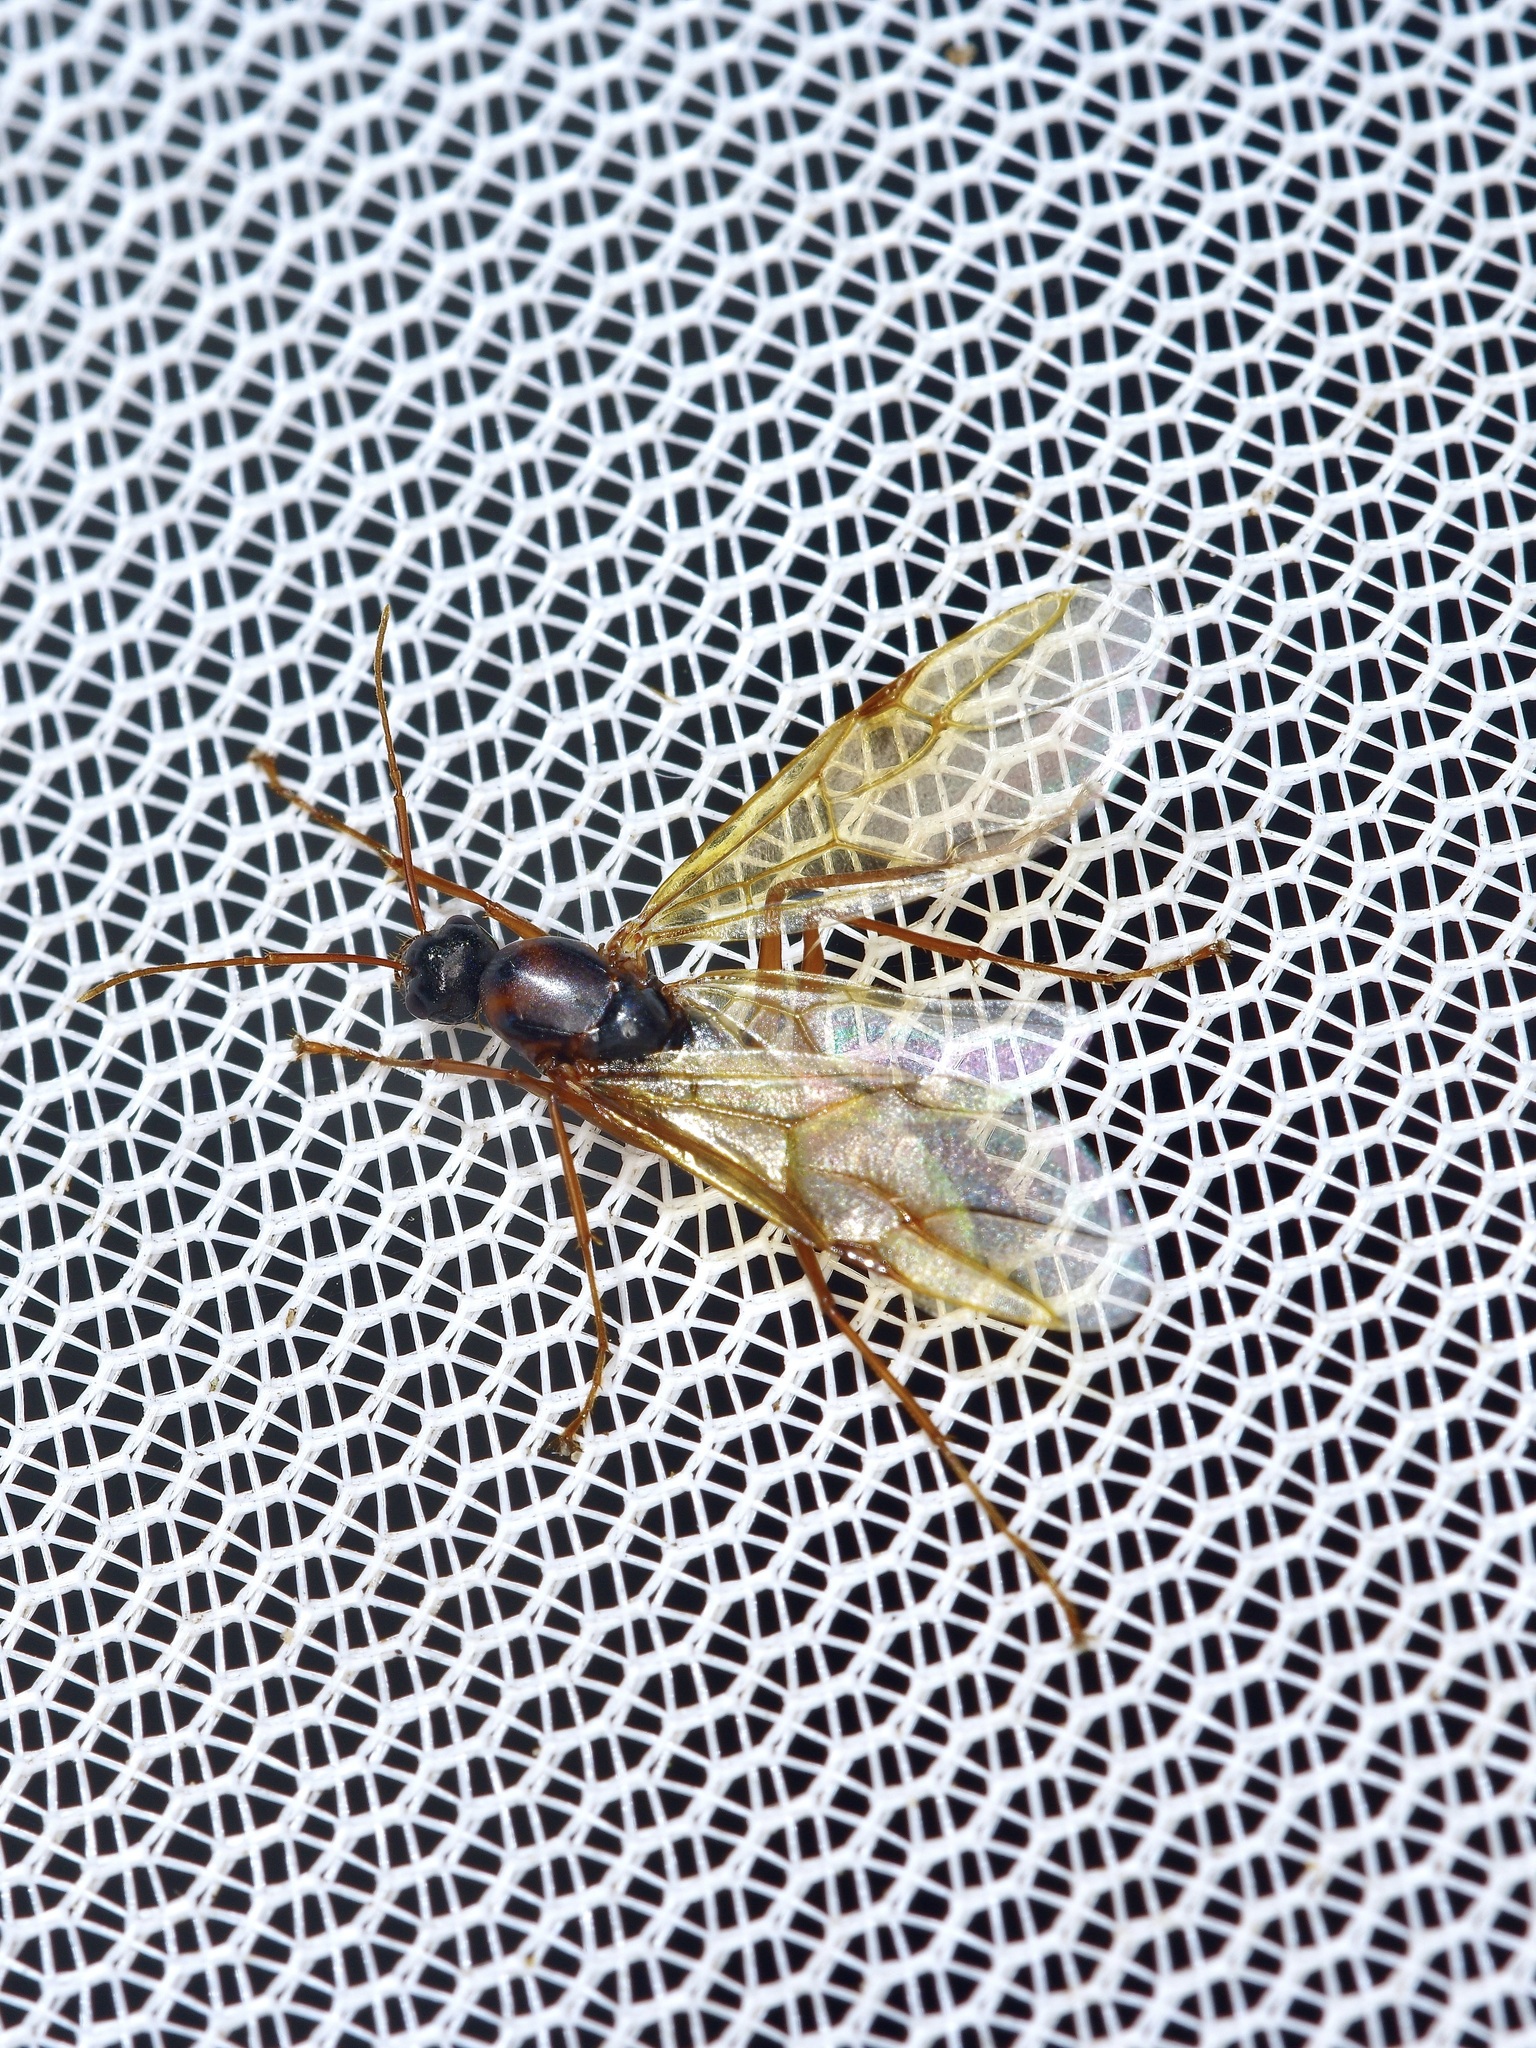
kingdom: Animalia
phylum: Arthropoda
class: Insecta
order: Hymenoptera
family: Formicidae
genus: Camponotus
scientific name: Camponotus texanus
